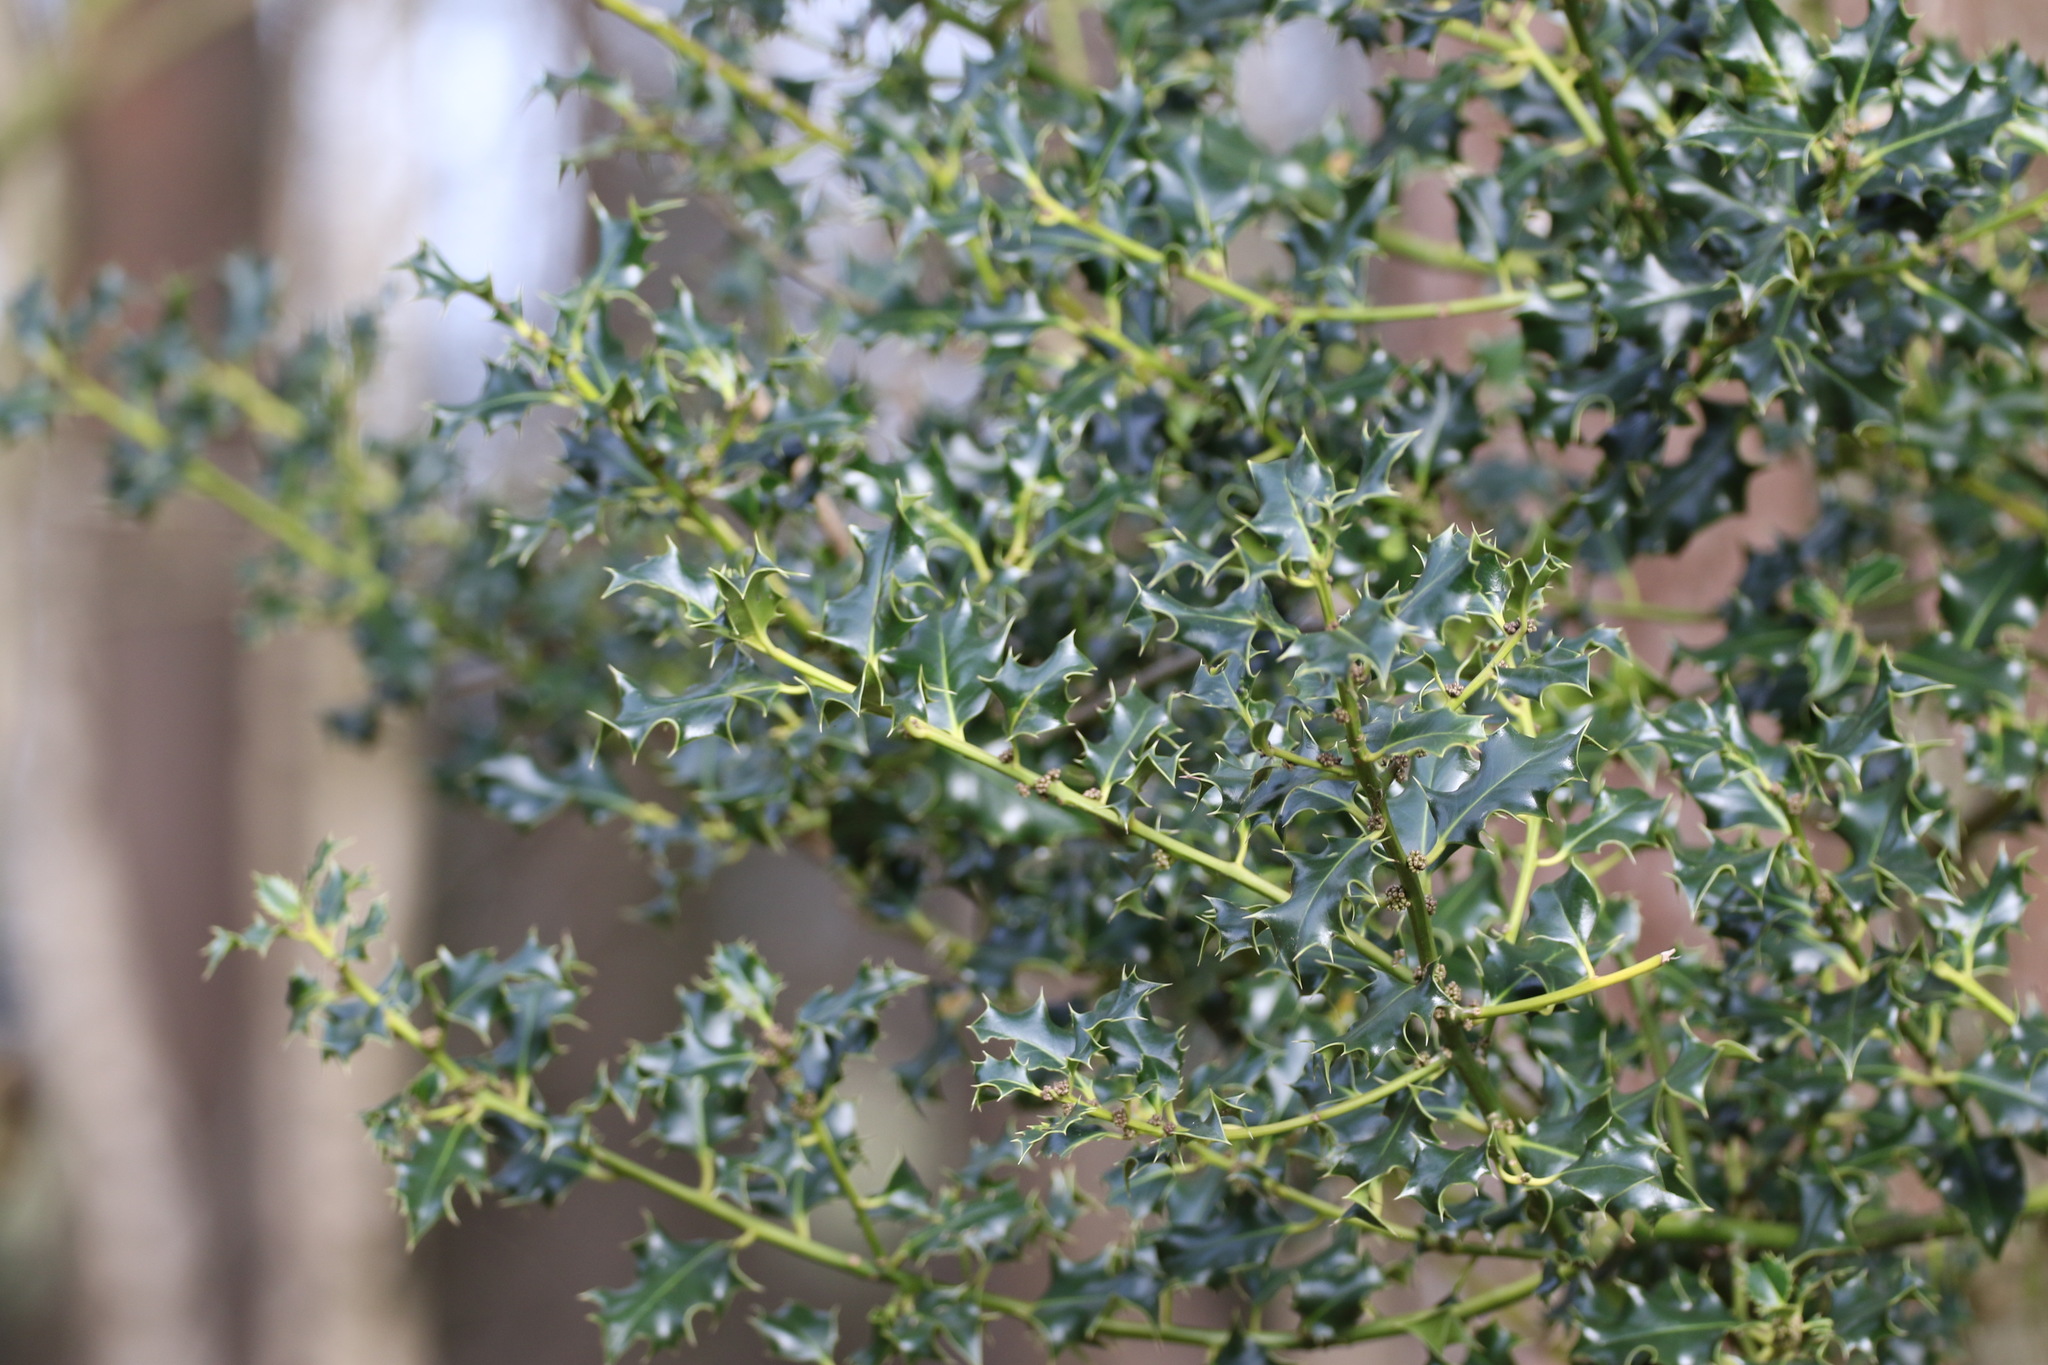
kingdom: Plantae
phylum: Tracheophyta
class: Magnoliopsida
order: Aquifoliales
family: Aquifoliaceae
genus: Ilex
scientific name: Ilex aquifolium
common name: English holly
